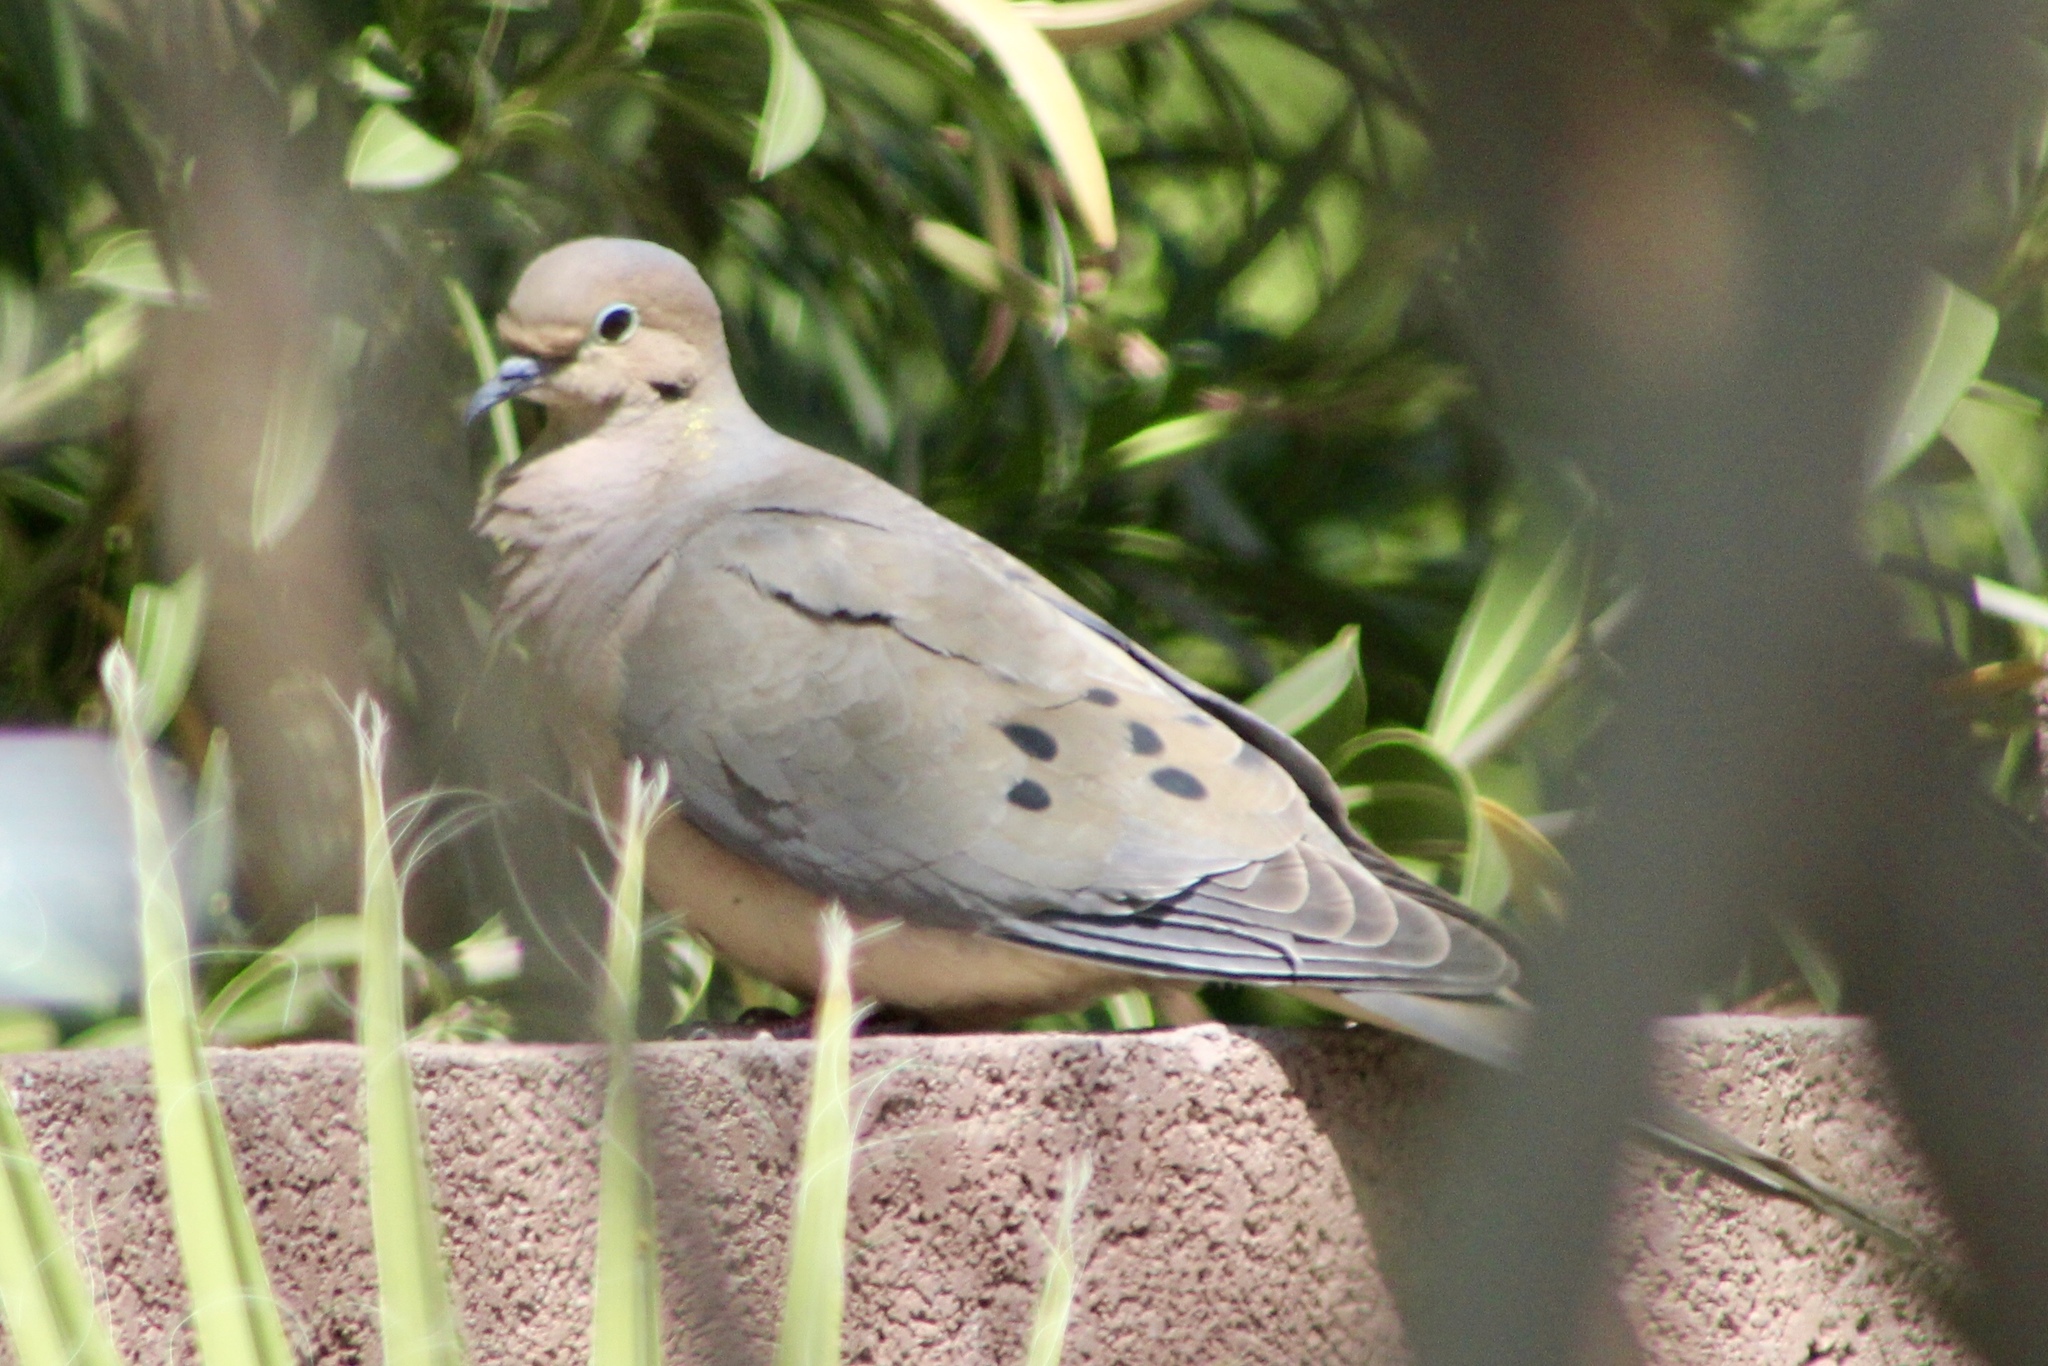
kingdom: Animalia
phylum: Chordata
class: Aves
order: Columbiformes
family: Columbidae
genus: Zenaida
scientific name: Zenaida macroura
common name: Mourning dove
